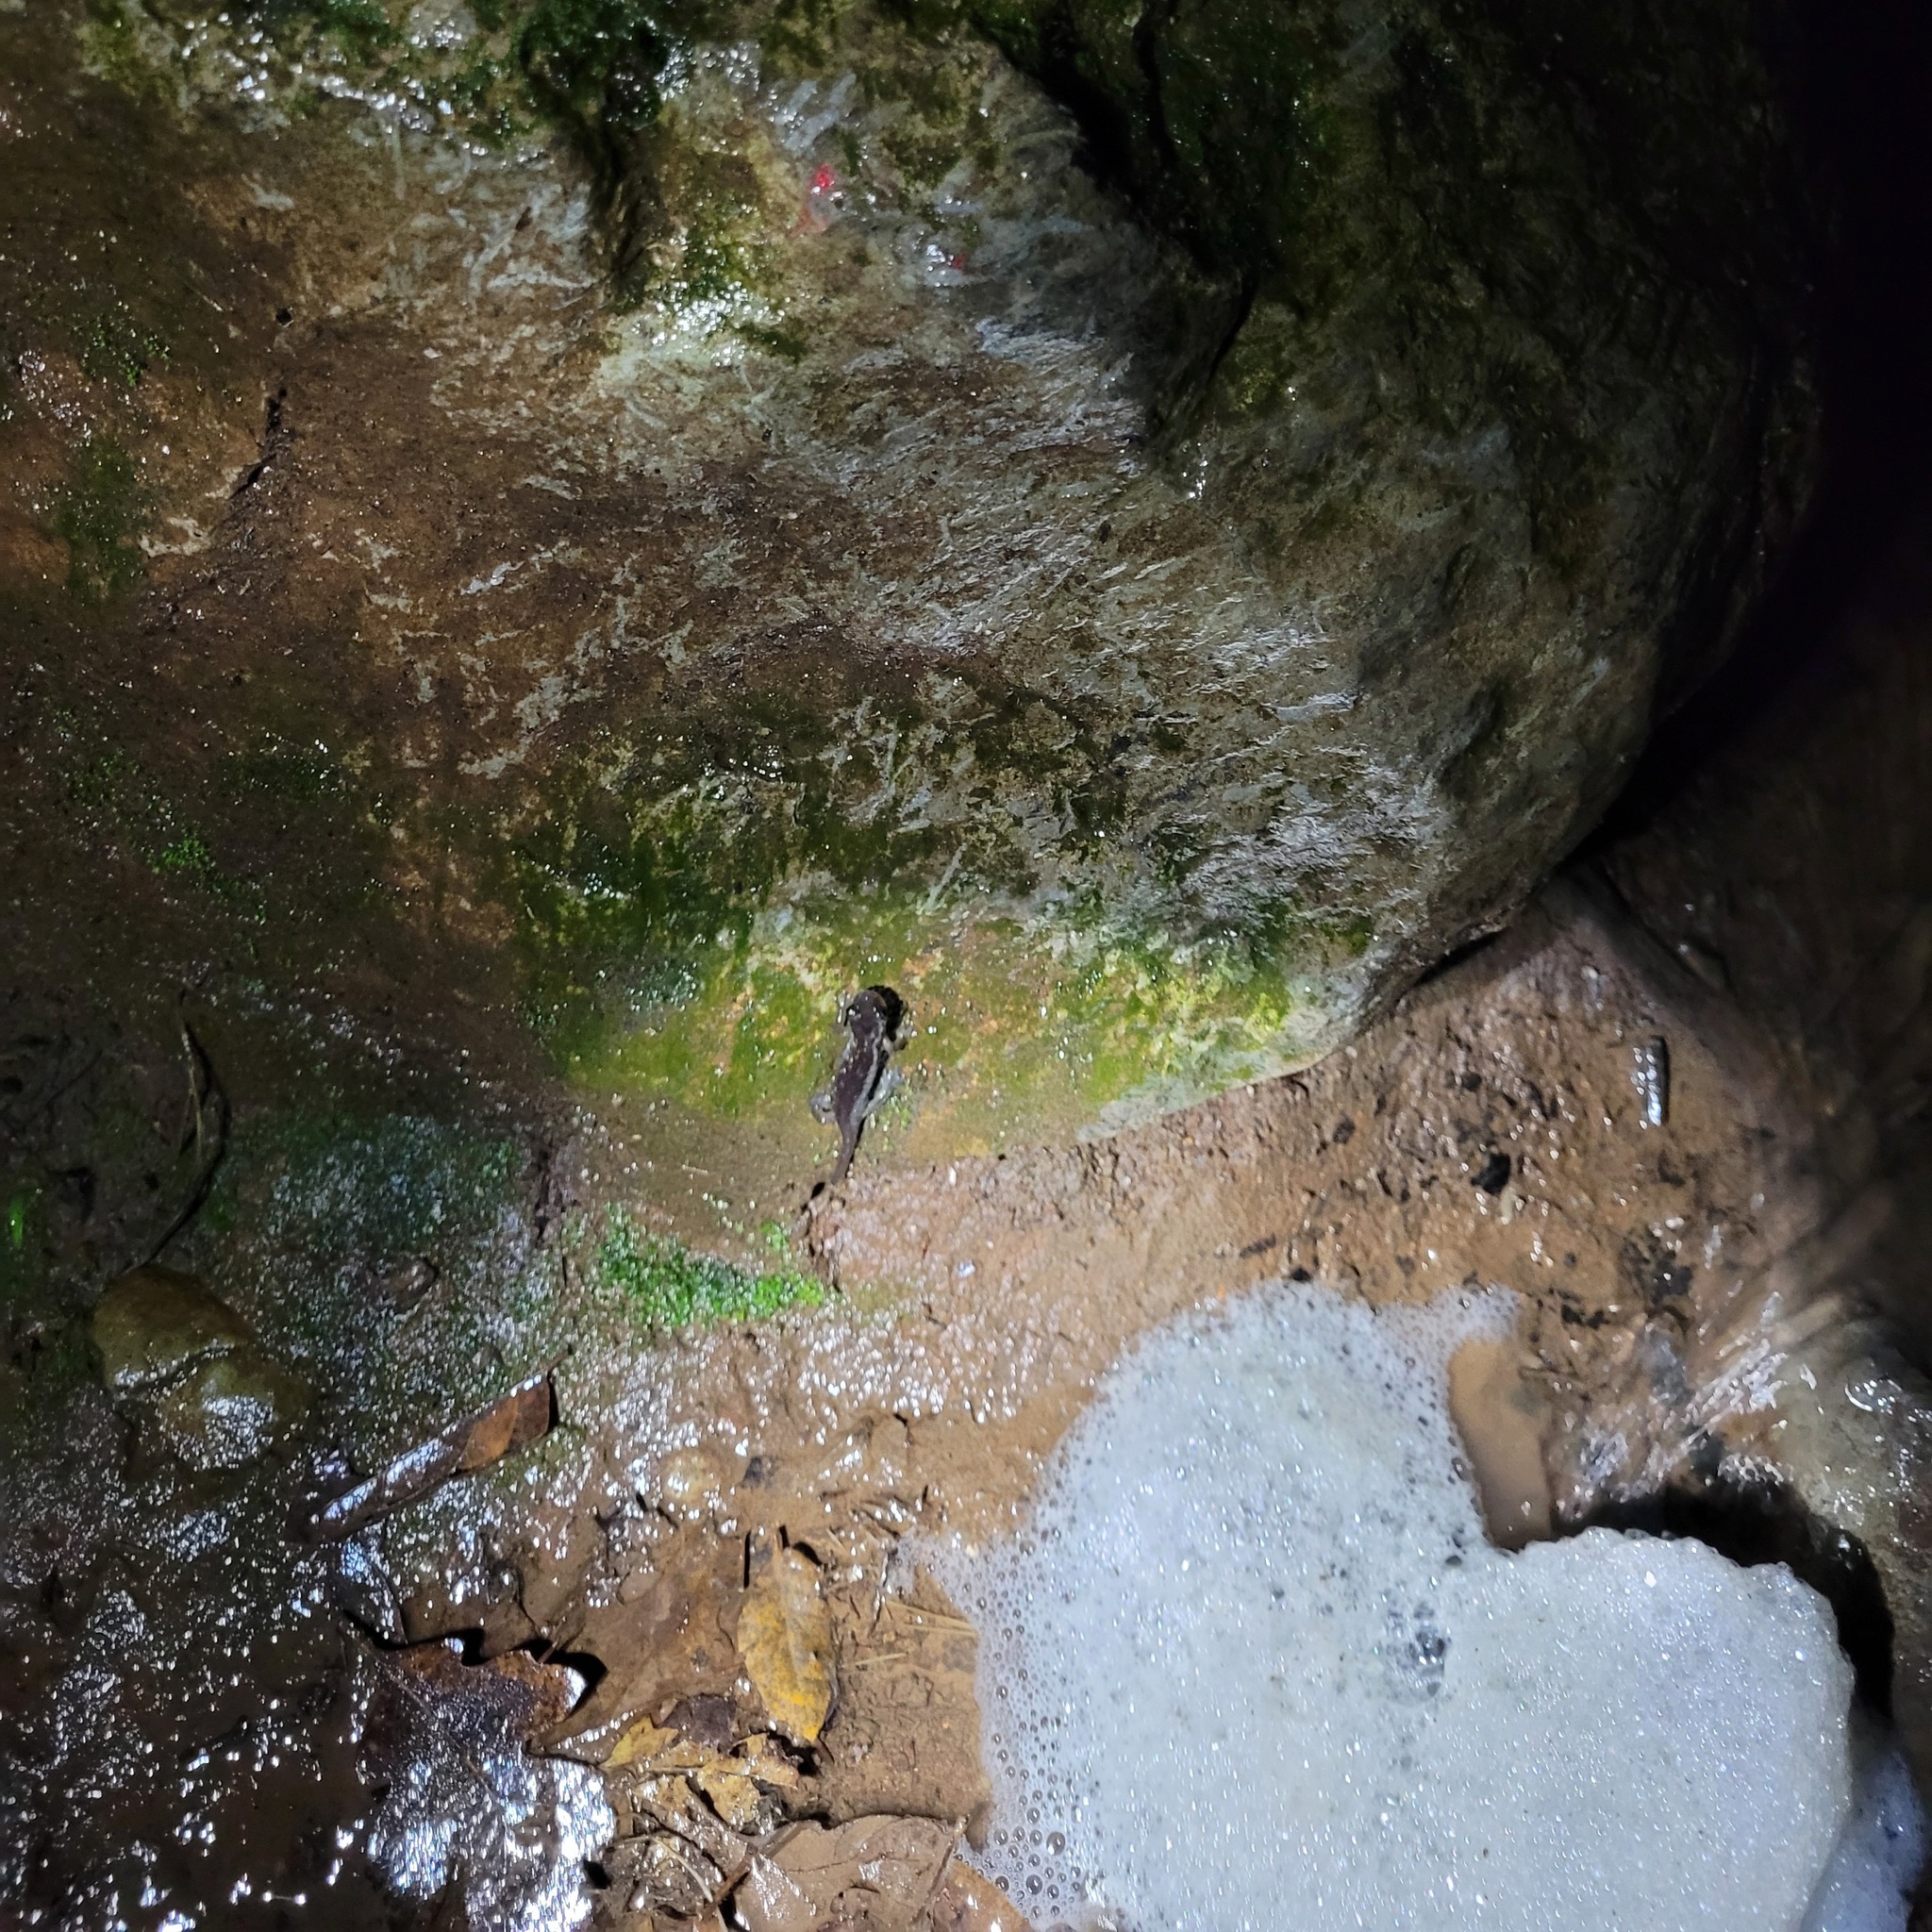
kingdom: Animalia
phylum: Chordata
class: Amphibia
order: Caudata
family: Plethodontidae
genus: Aneides
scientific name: Aneides lugubris
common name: Arboreal salamander
